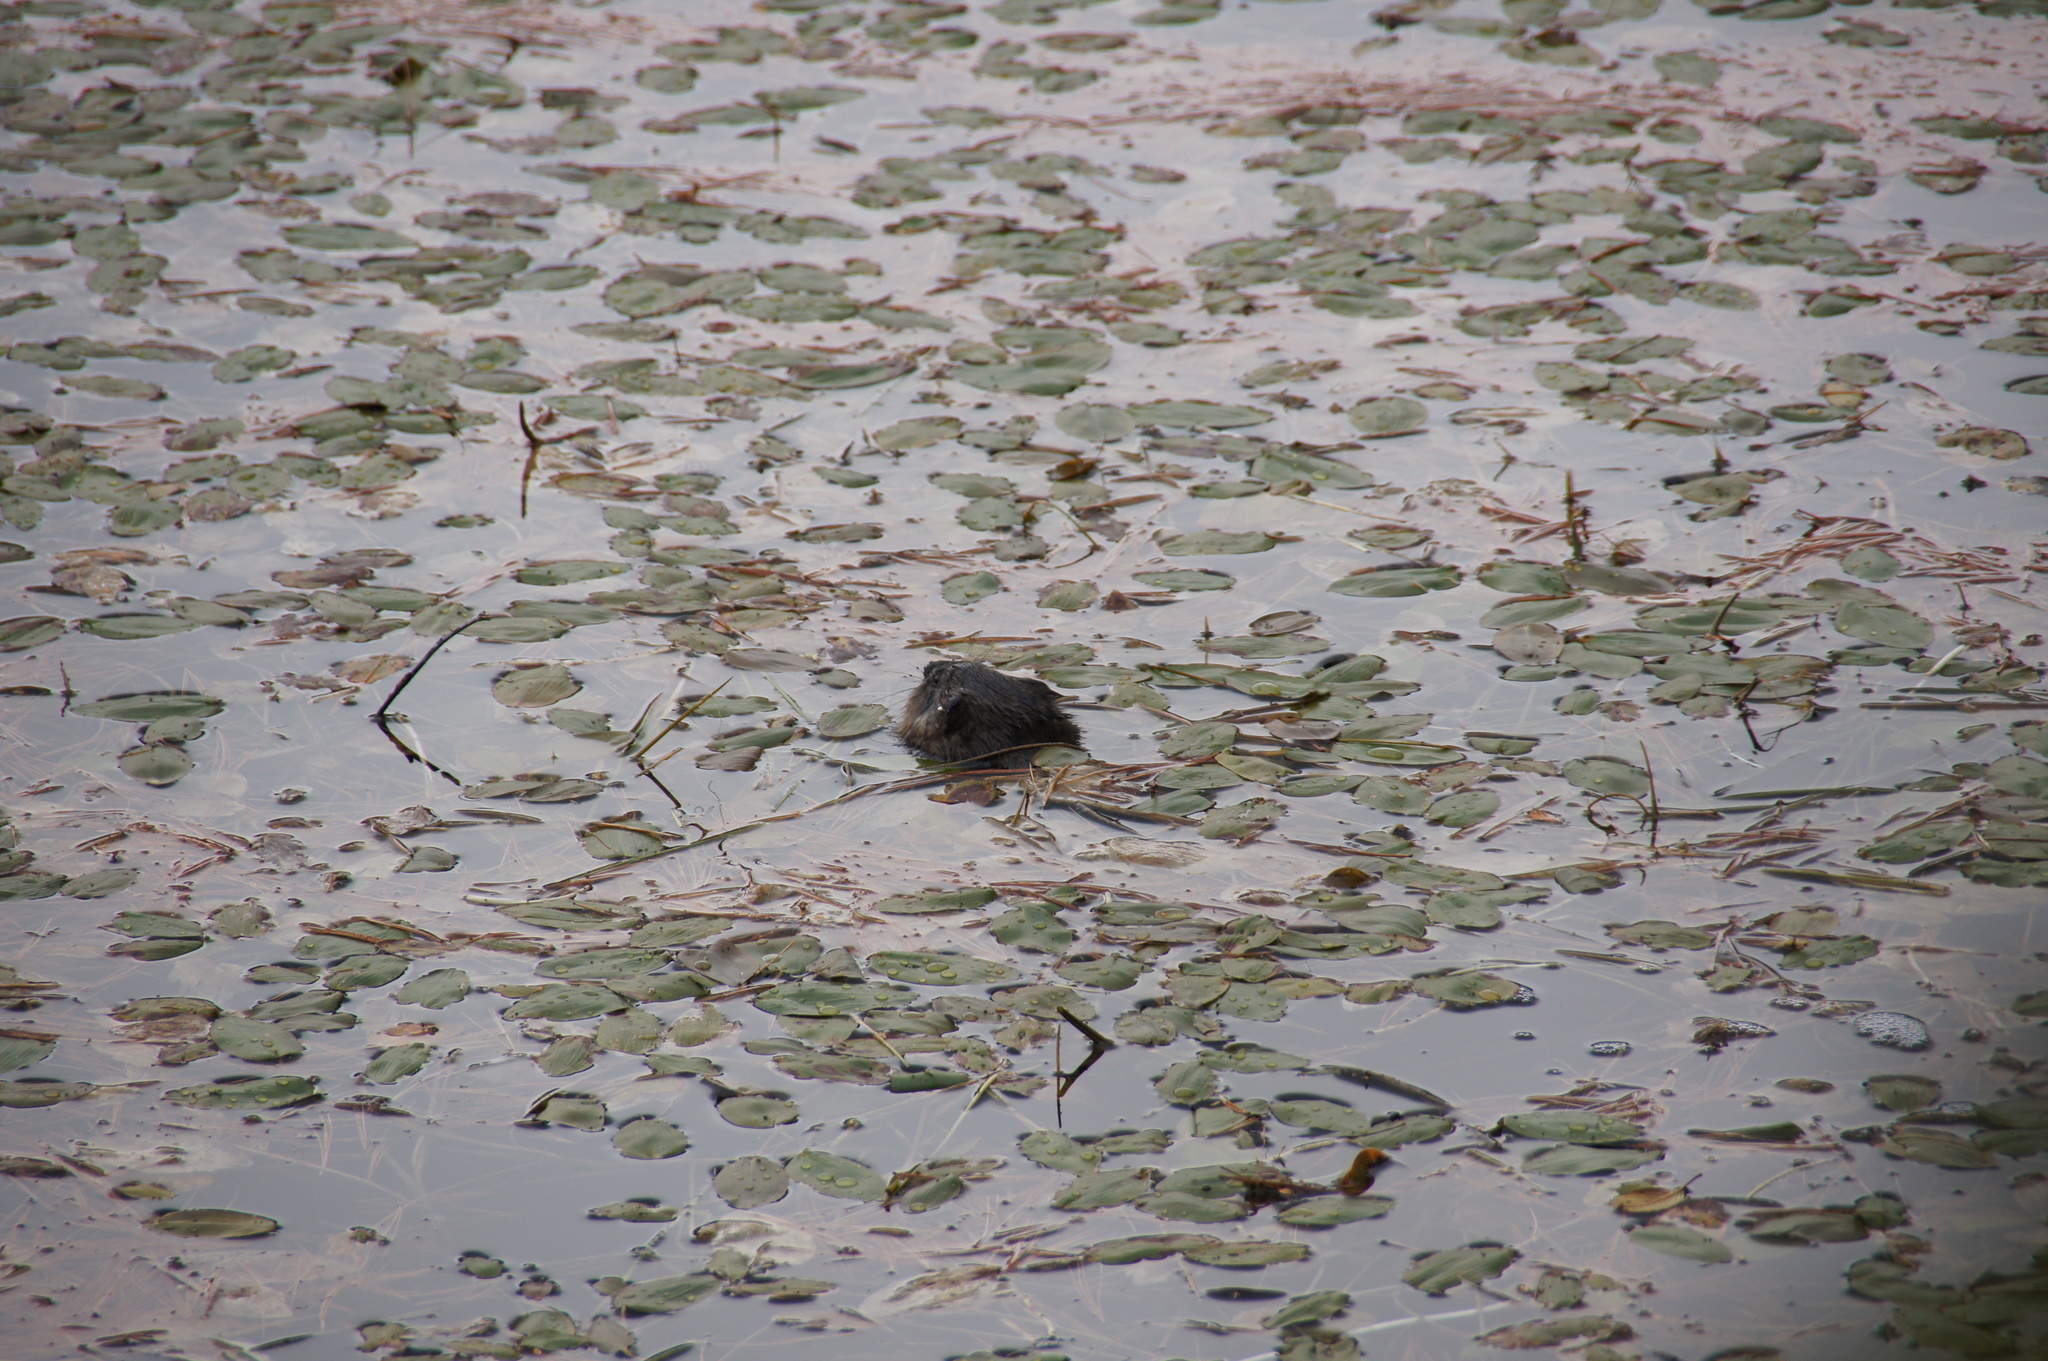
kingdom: Animalia
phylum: Chordata
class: Mammalia
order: Rodentia
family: Castoridae
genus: Castor
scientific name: Castor canadensis
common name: American beaver
